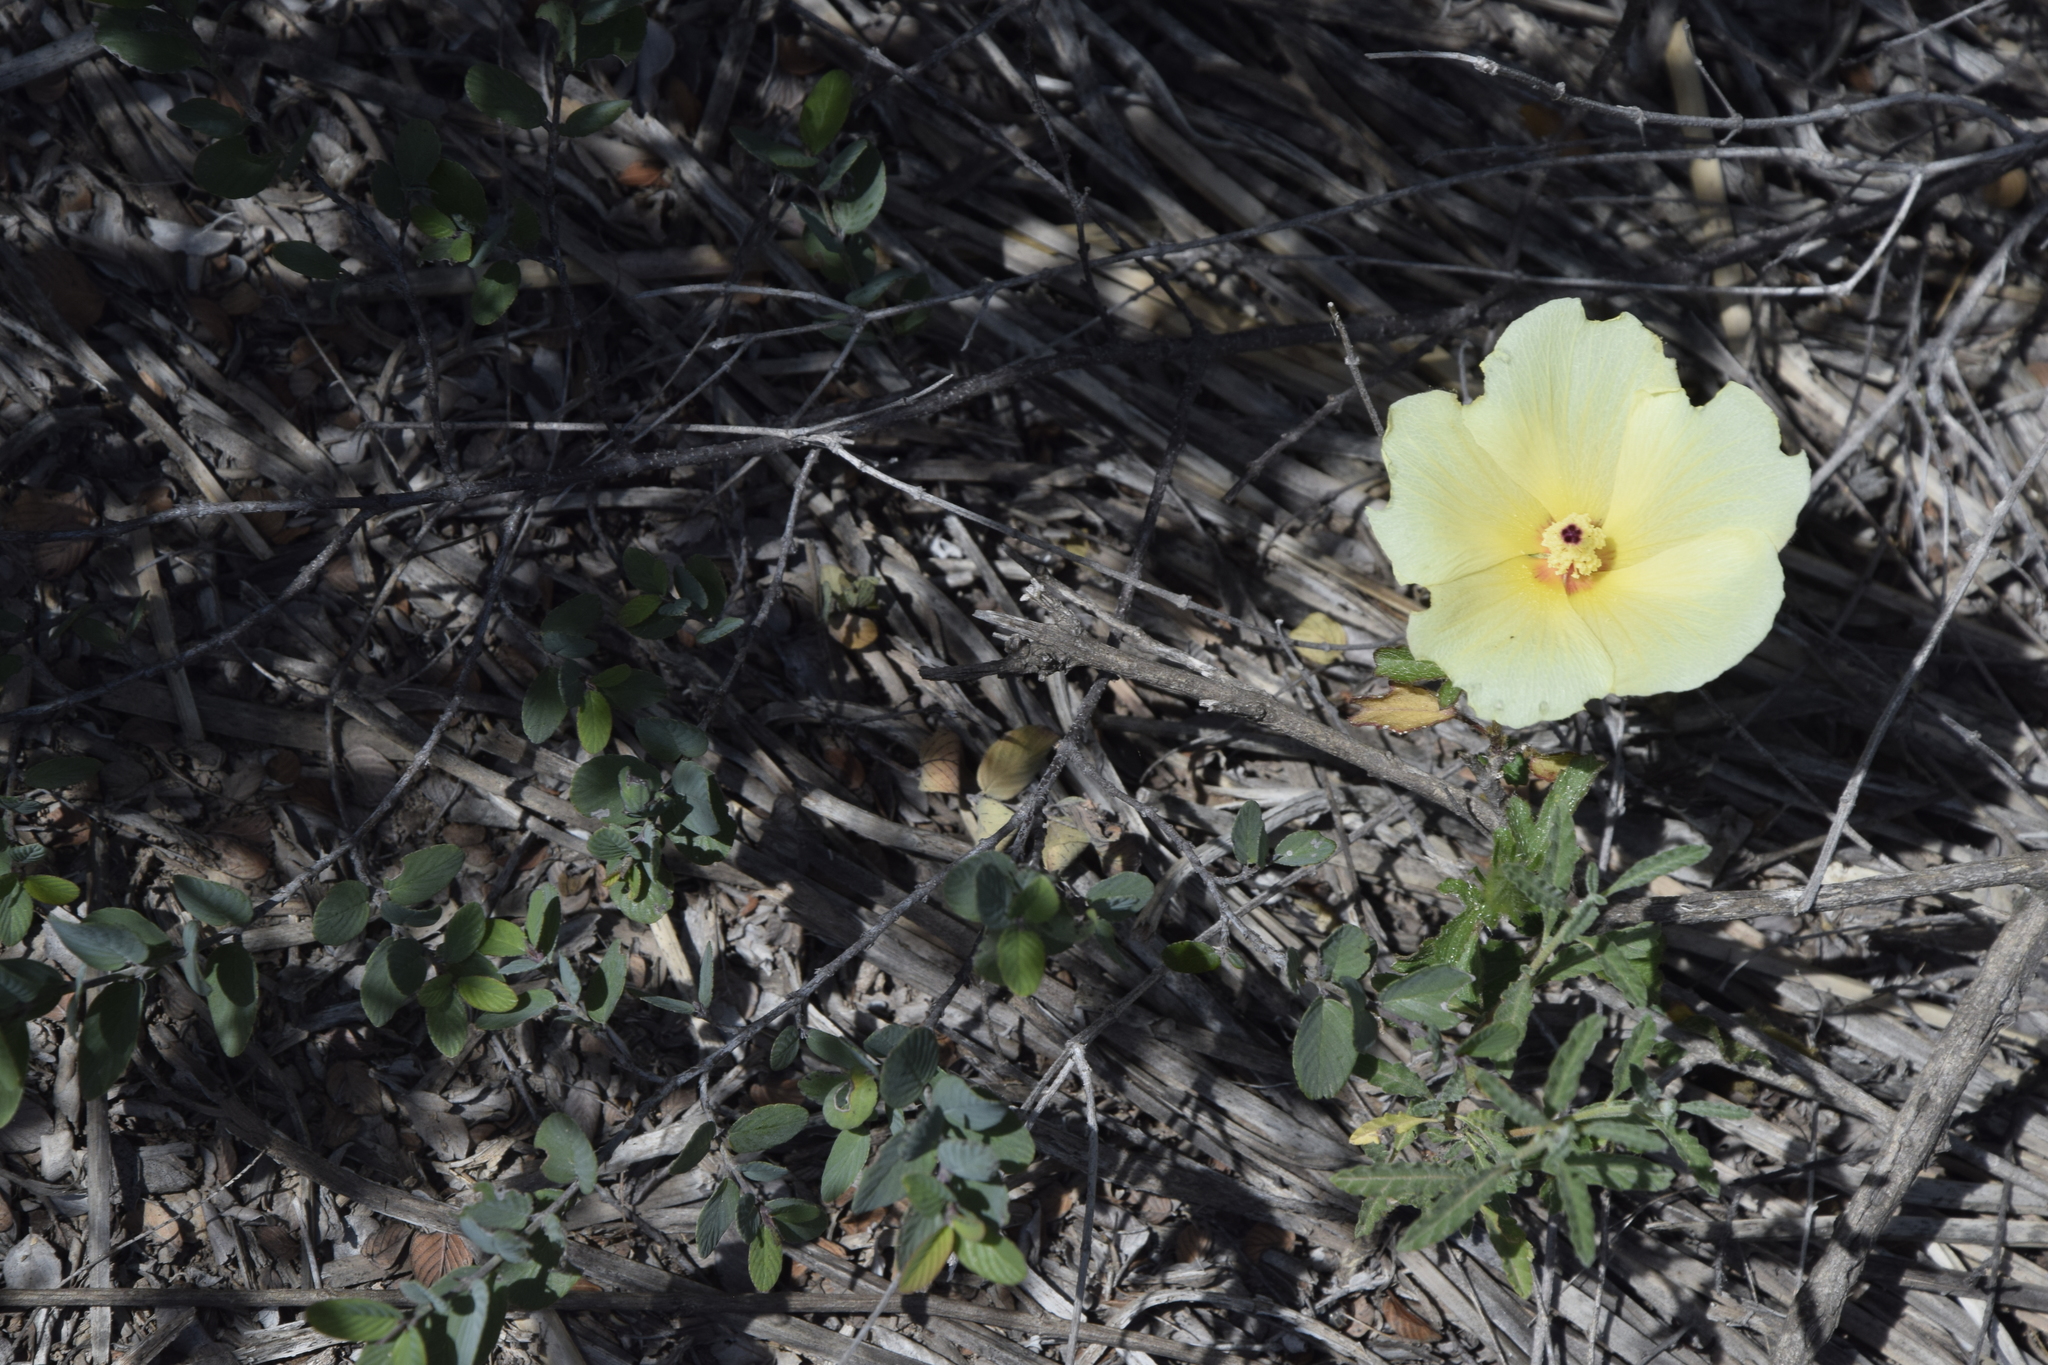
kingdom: Plantae
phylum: Tracheophyta
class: Magnoliopsida
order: Malvales
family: Malvaceae
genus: Hibiscus
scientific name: Hibiscus coulteri
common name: Desert rose-mallow
